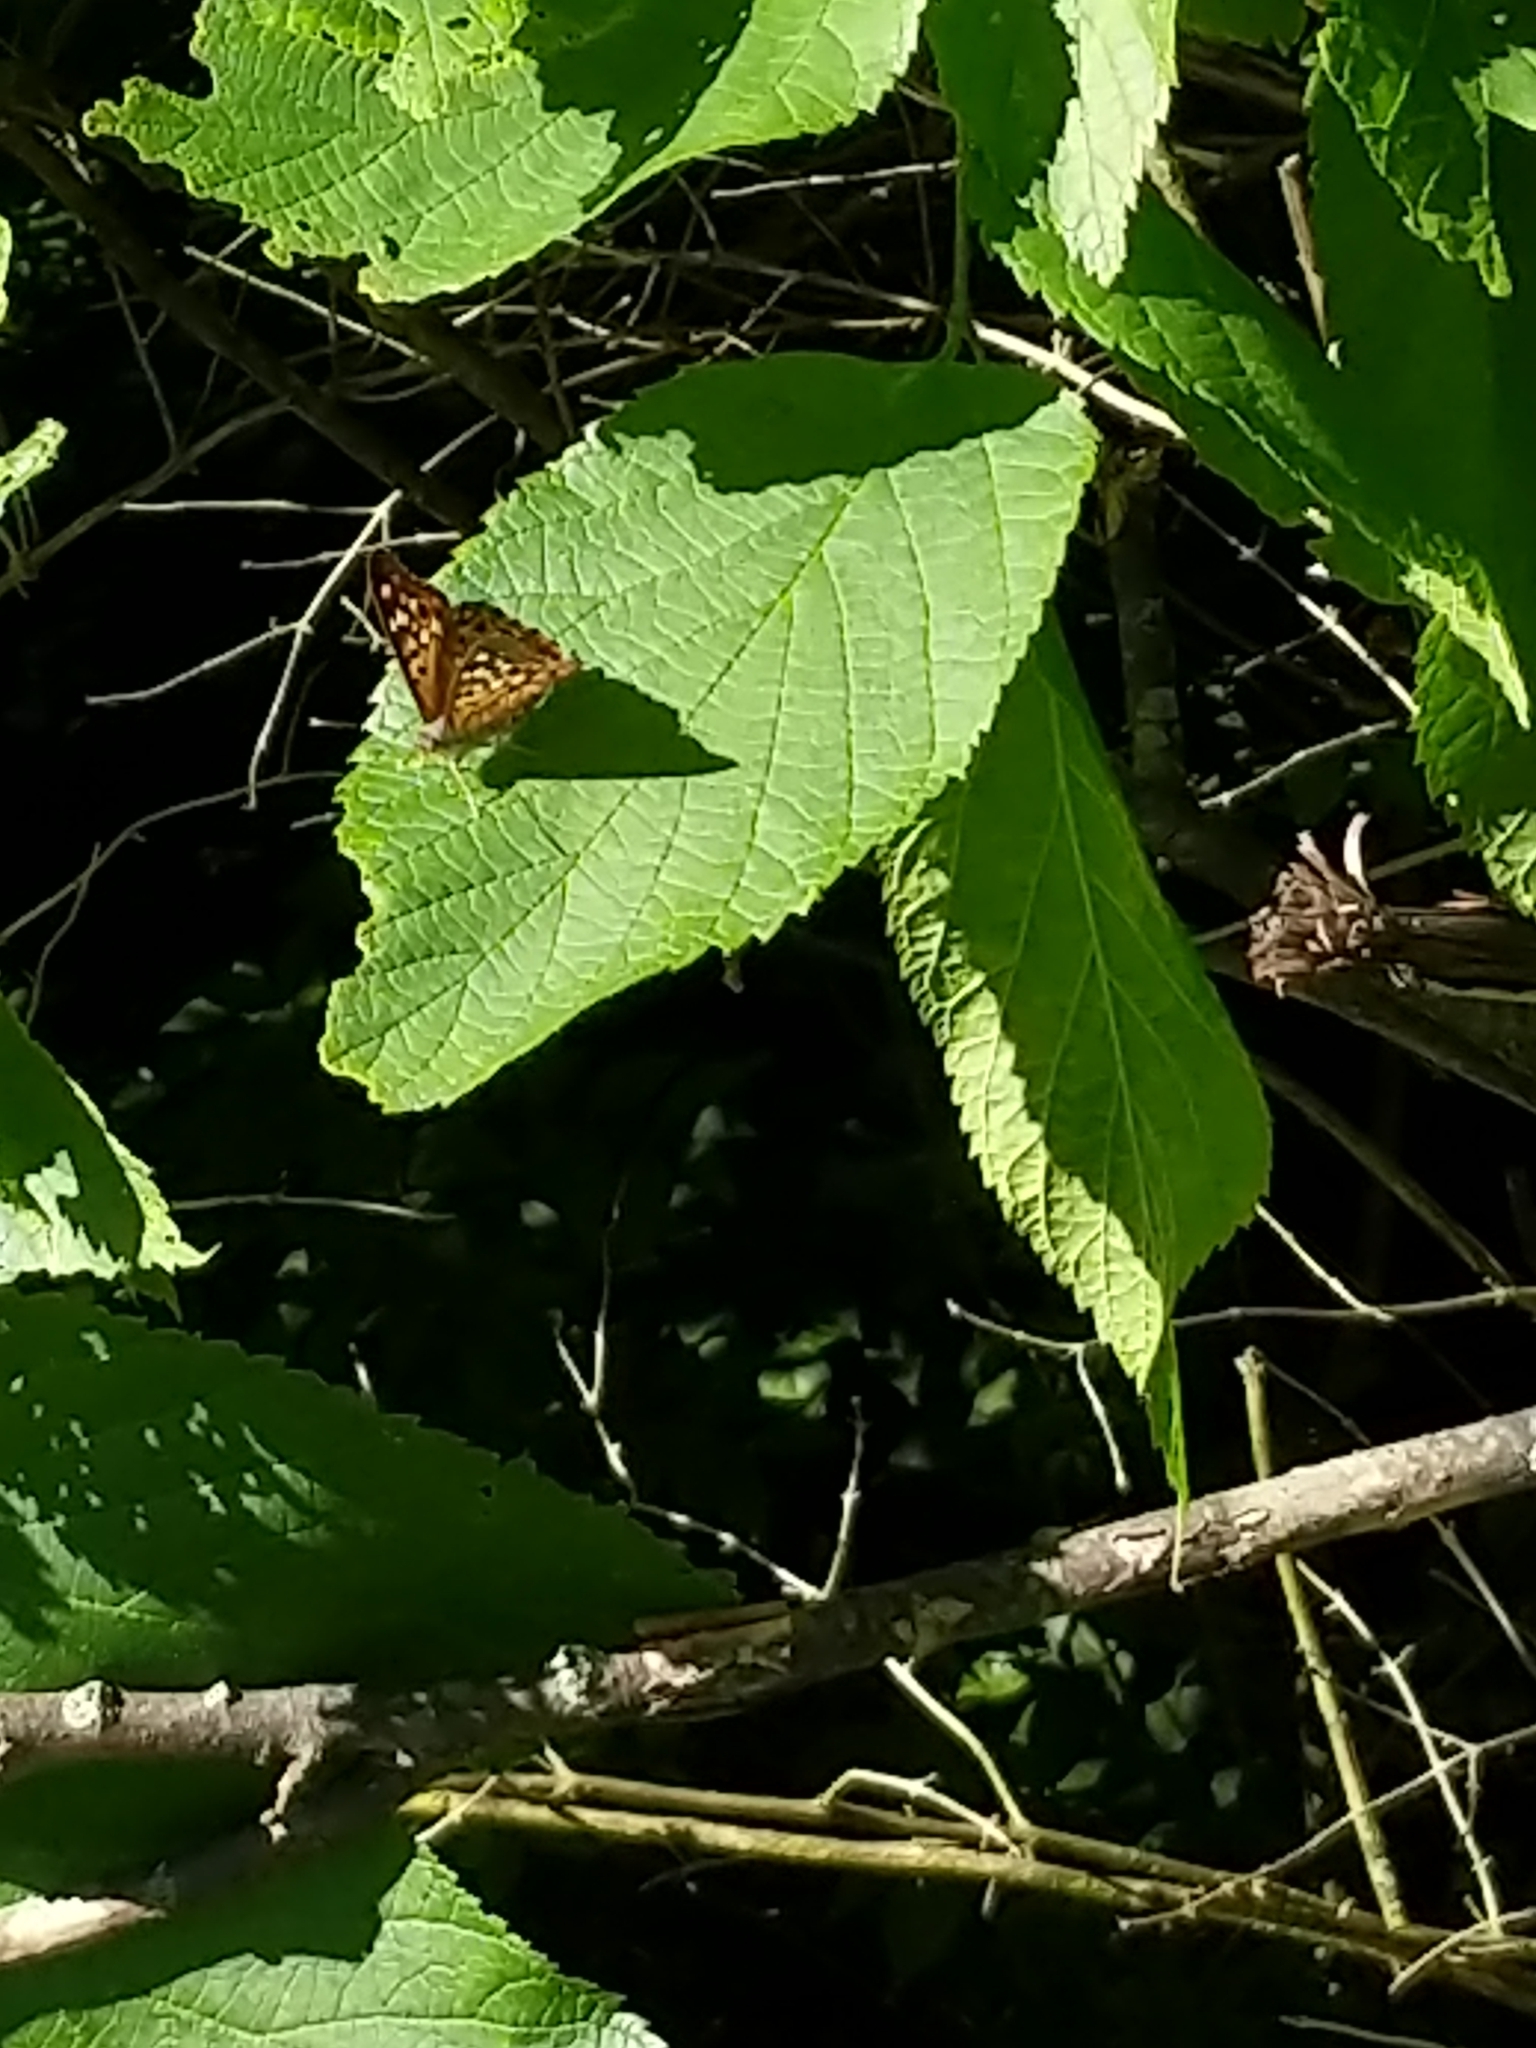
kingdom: Animalia
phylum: Arthropoda
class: Insecta
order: Lepidoptera
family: Nymphalidae
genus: Asterocampa
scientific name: Asterocampa celtis
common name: Hackberry emperor
